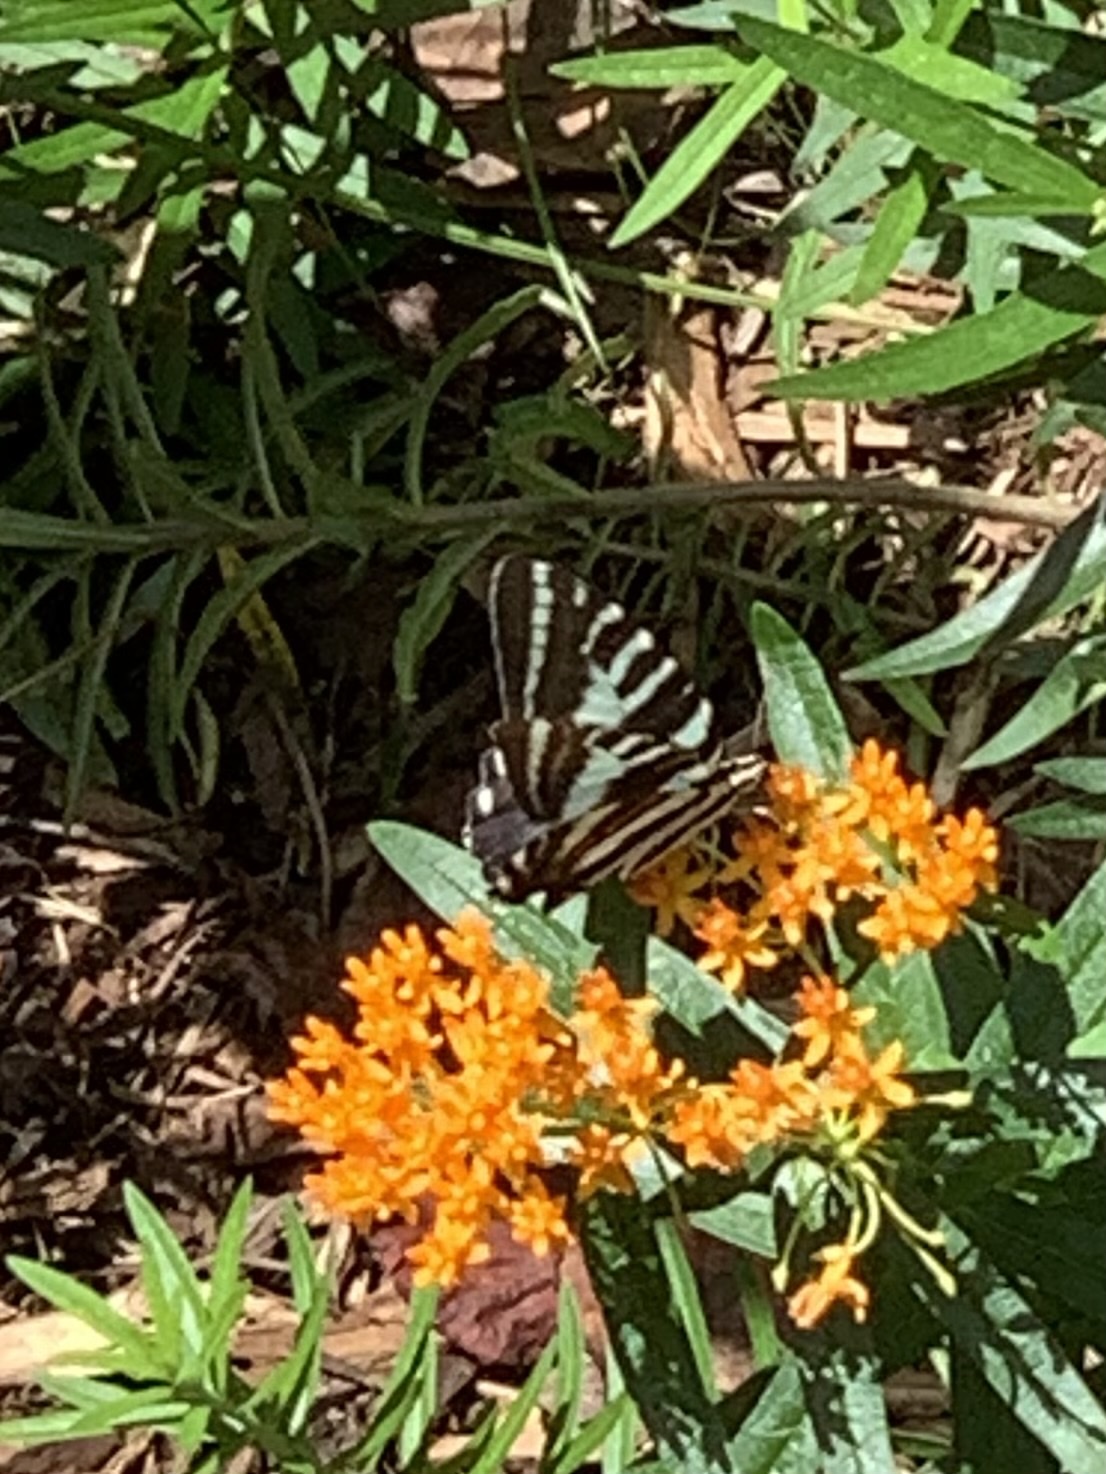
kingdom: Animalia
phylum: Arthropoda
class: Insecta
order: Lepidoptera
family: Papilionidae
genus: Protographium
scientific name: Protographium marcellus
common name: Zebra swallowtail
